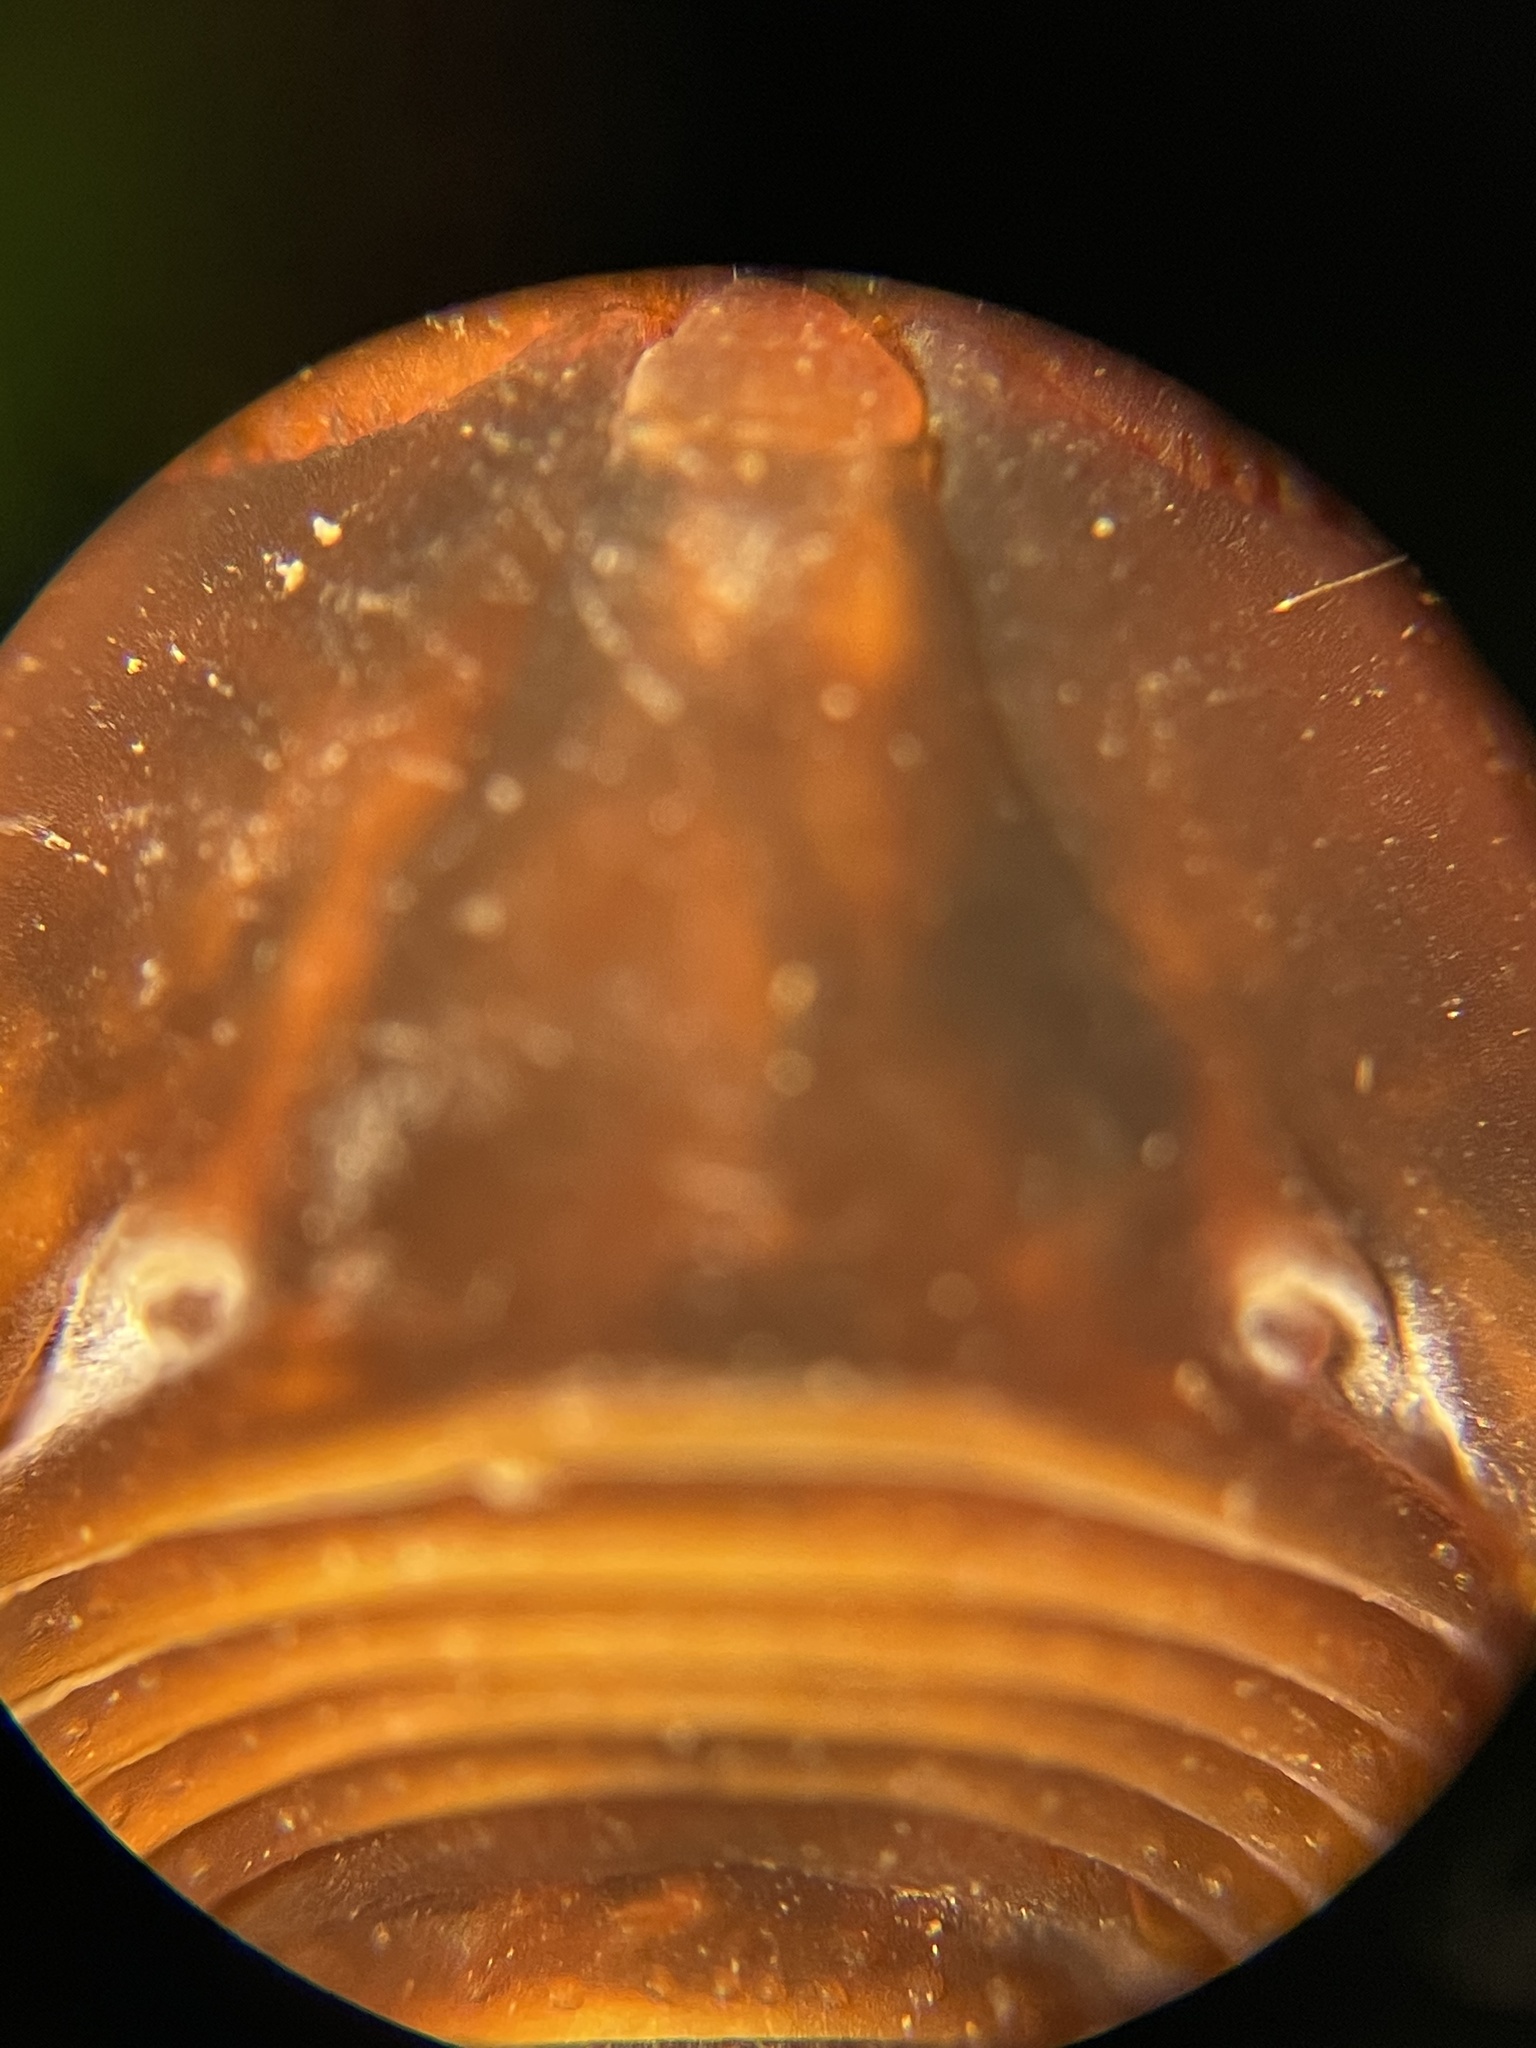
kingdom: Animalia
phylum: Arthropoda
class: Arachnida
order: Opiliones
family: Cosmetidae
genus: Libitioides
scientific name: Libitioides sayi
